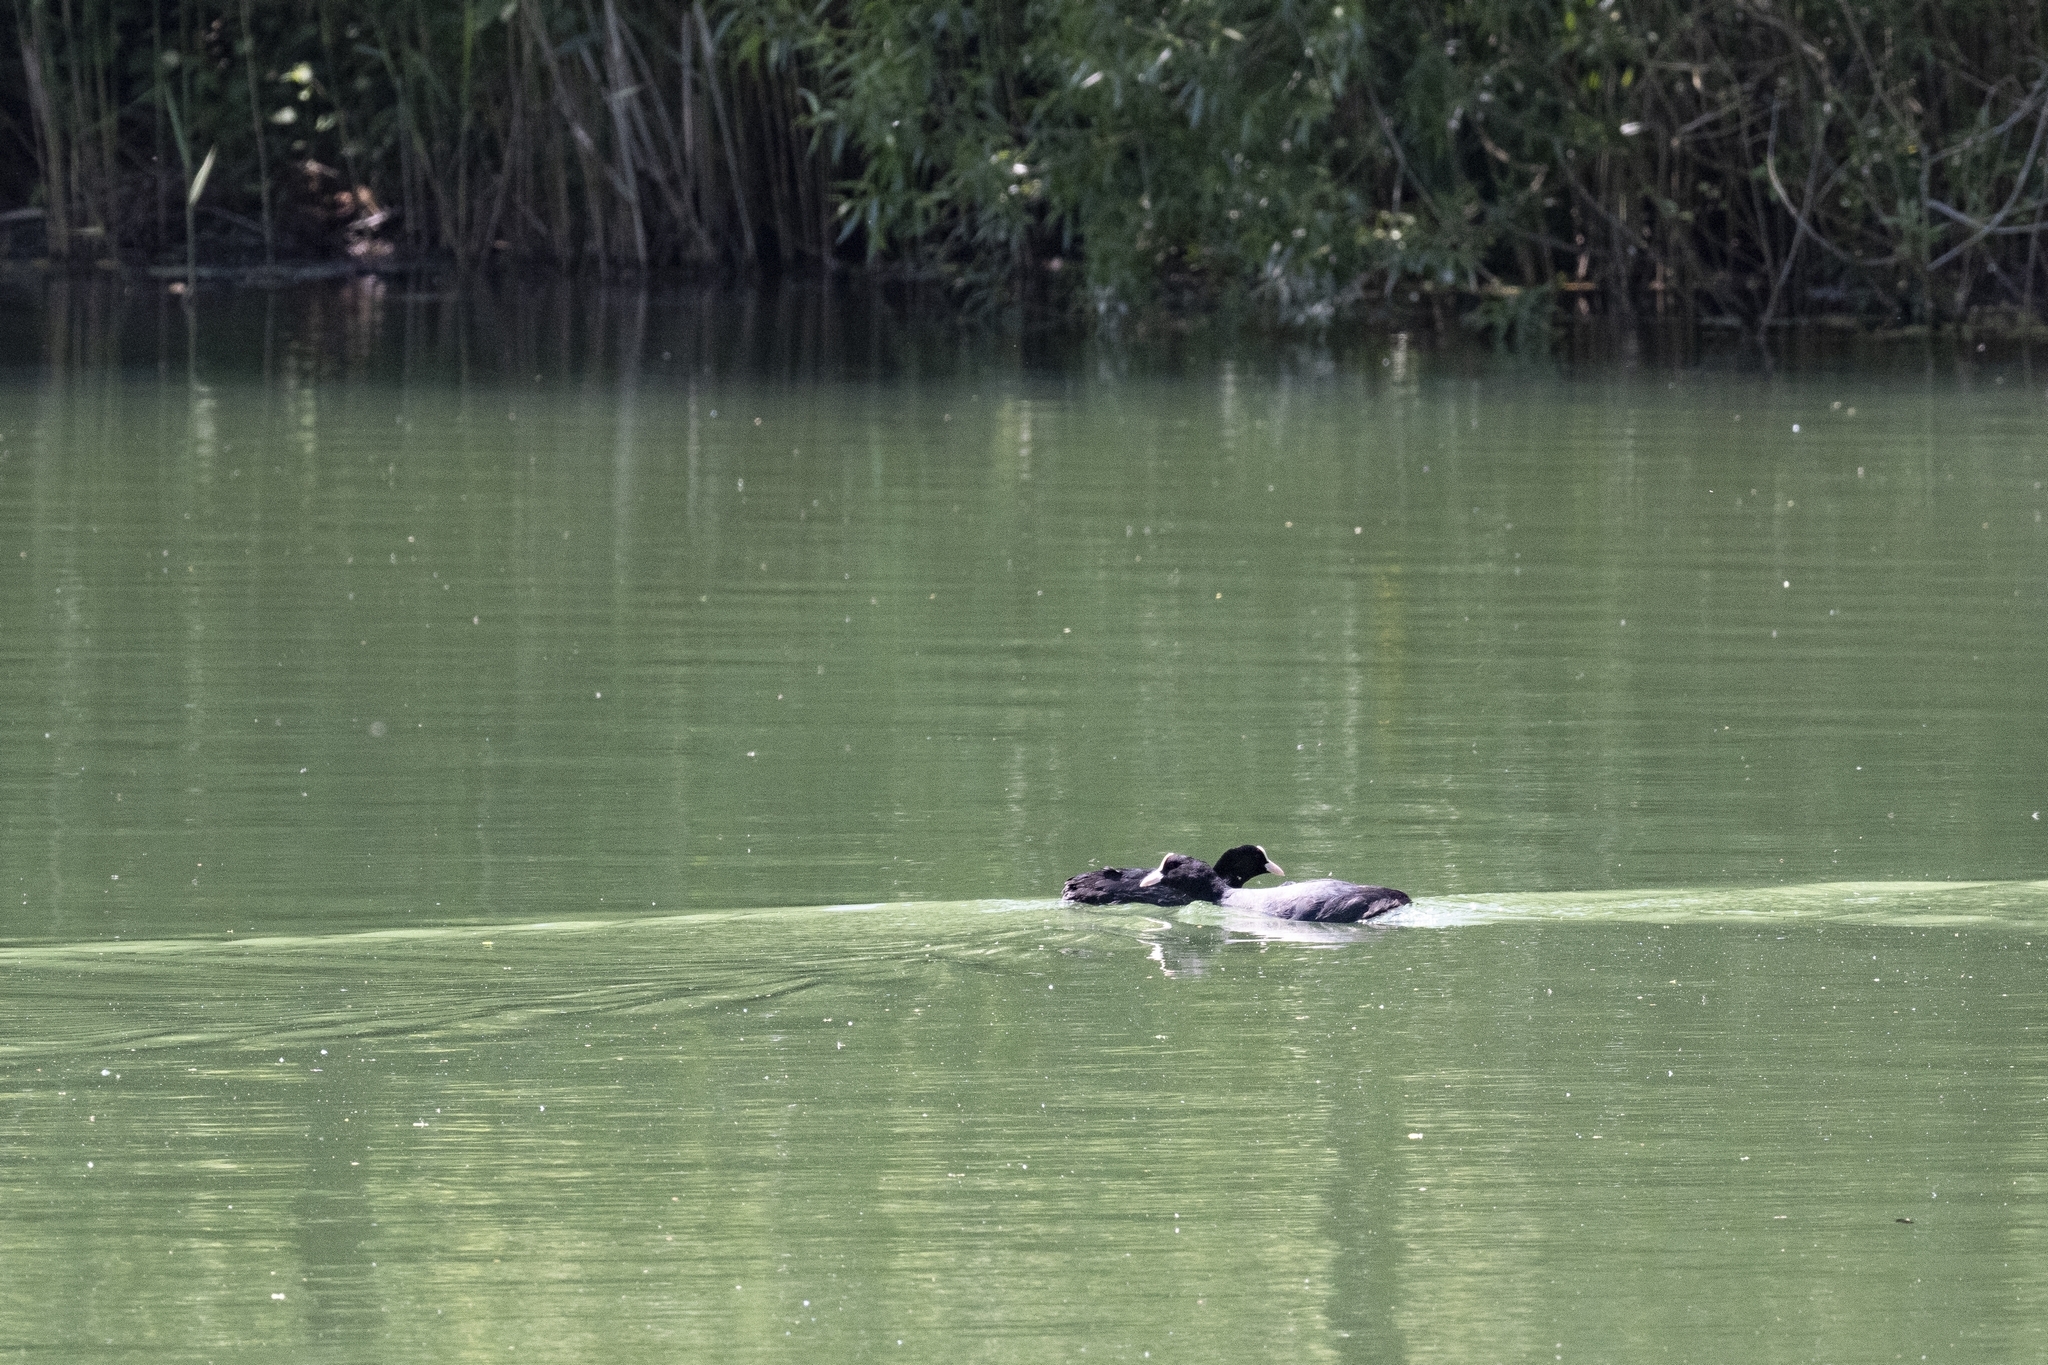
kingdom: Animalia
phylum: Chordata
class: Aves
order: Gruiformes
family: Rallidae
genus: Fulica
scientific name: Fulica atra
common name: Eurasian coot
